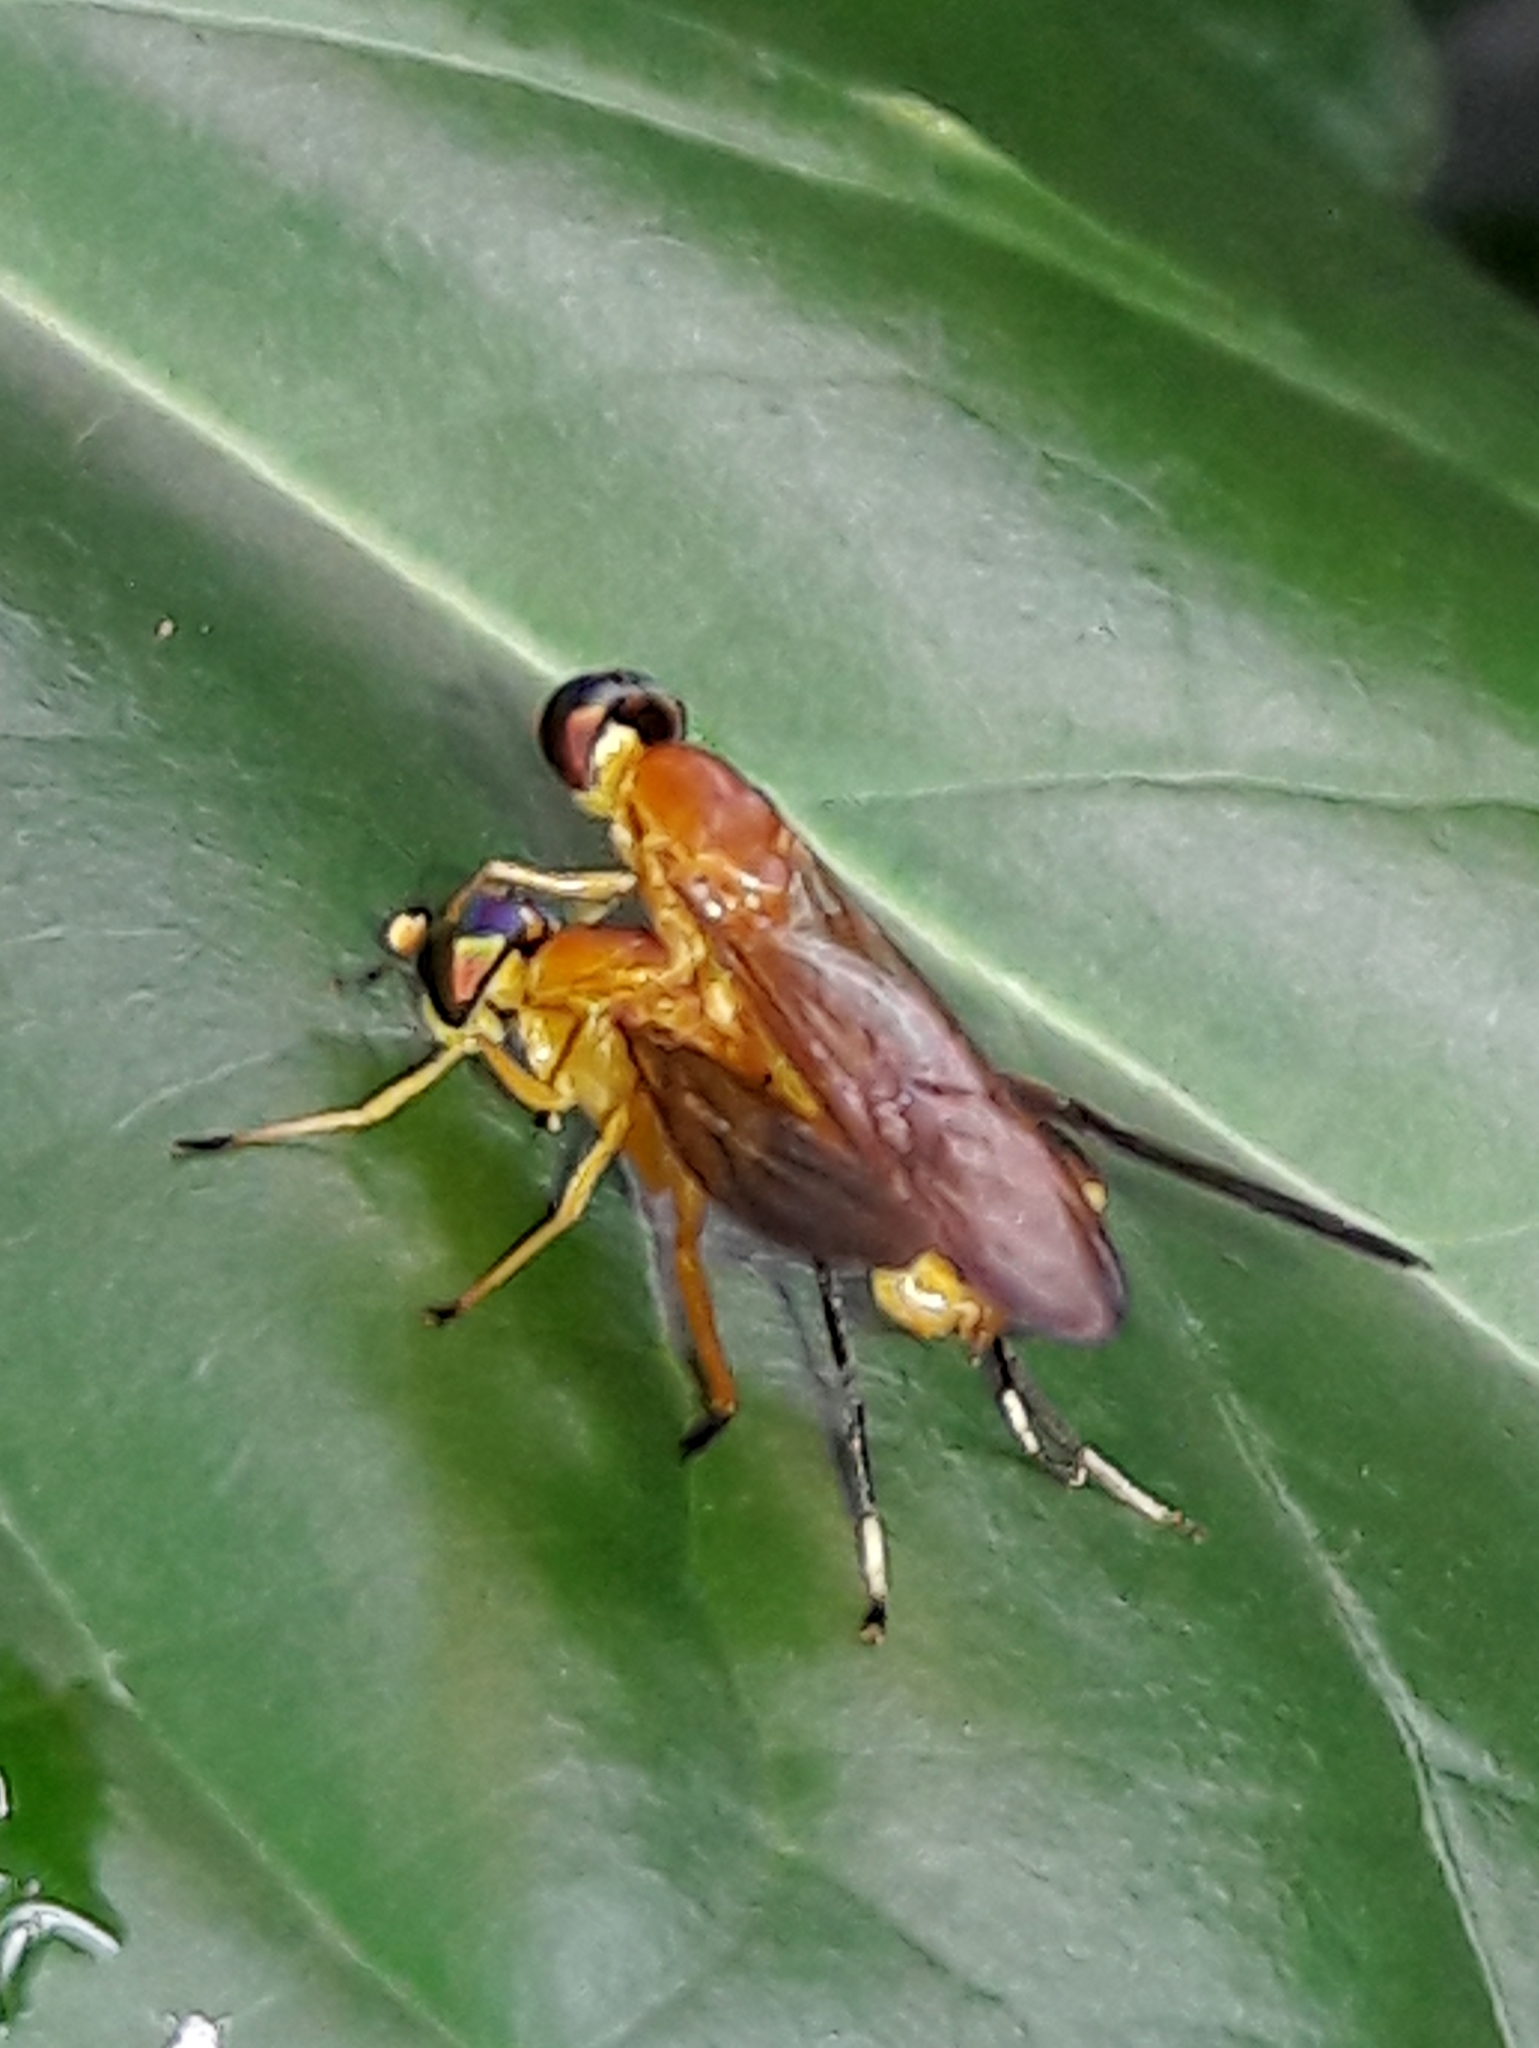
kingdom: Animalia
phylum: Arthropoda
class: Insecta
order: Diptera
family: Stratiomyidae
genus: Ptecticus
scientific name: Ptecticus testaceus
